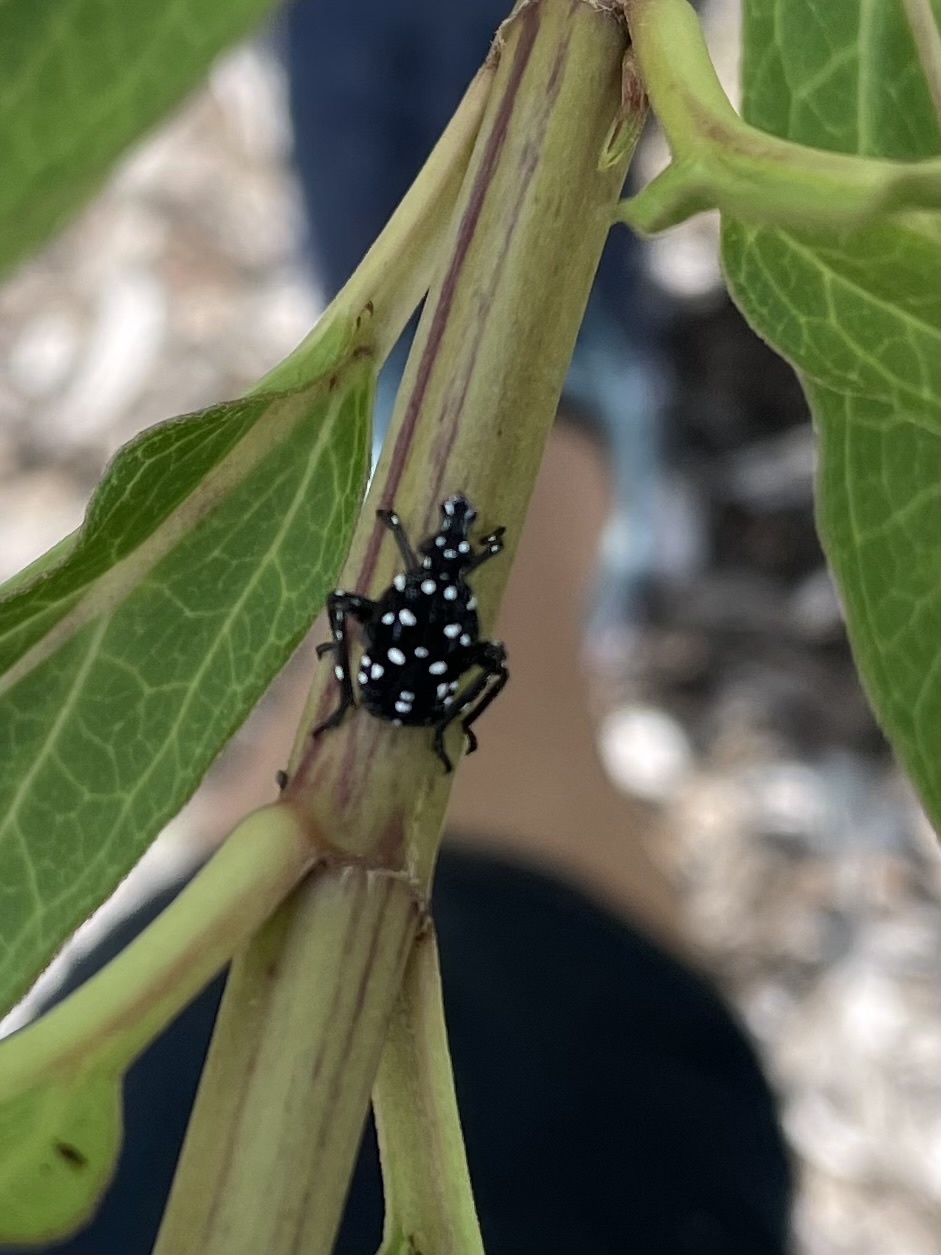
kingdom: Animalia
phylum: Arthropoda
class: Insecta
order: Hemiptera
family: Fulgoridae
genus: Lycorma
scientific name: Lycorma delicatula
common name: Spotted lanternfly
